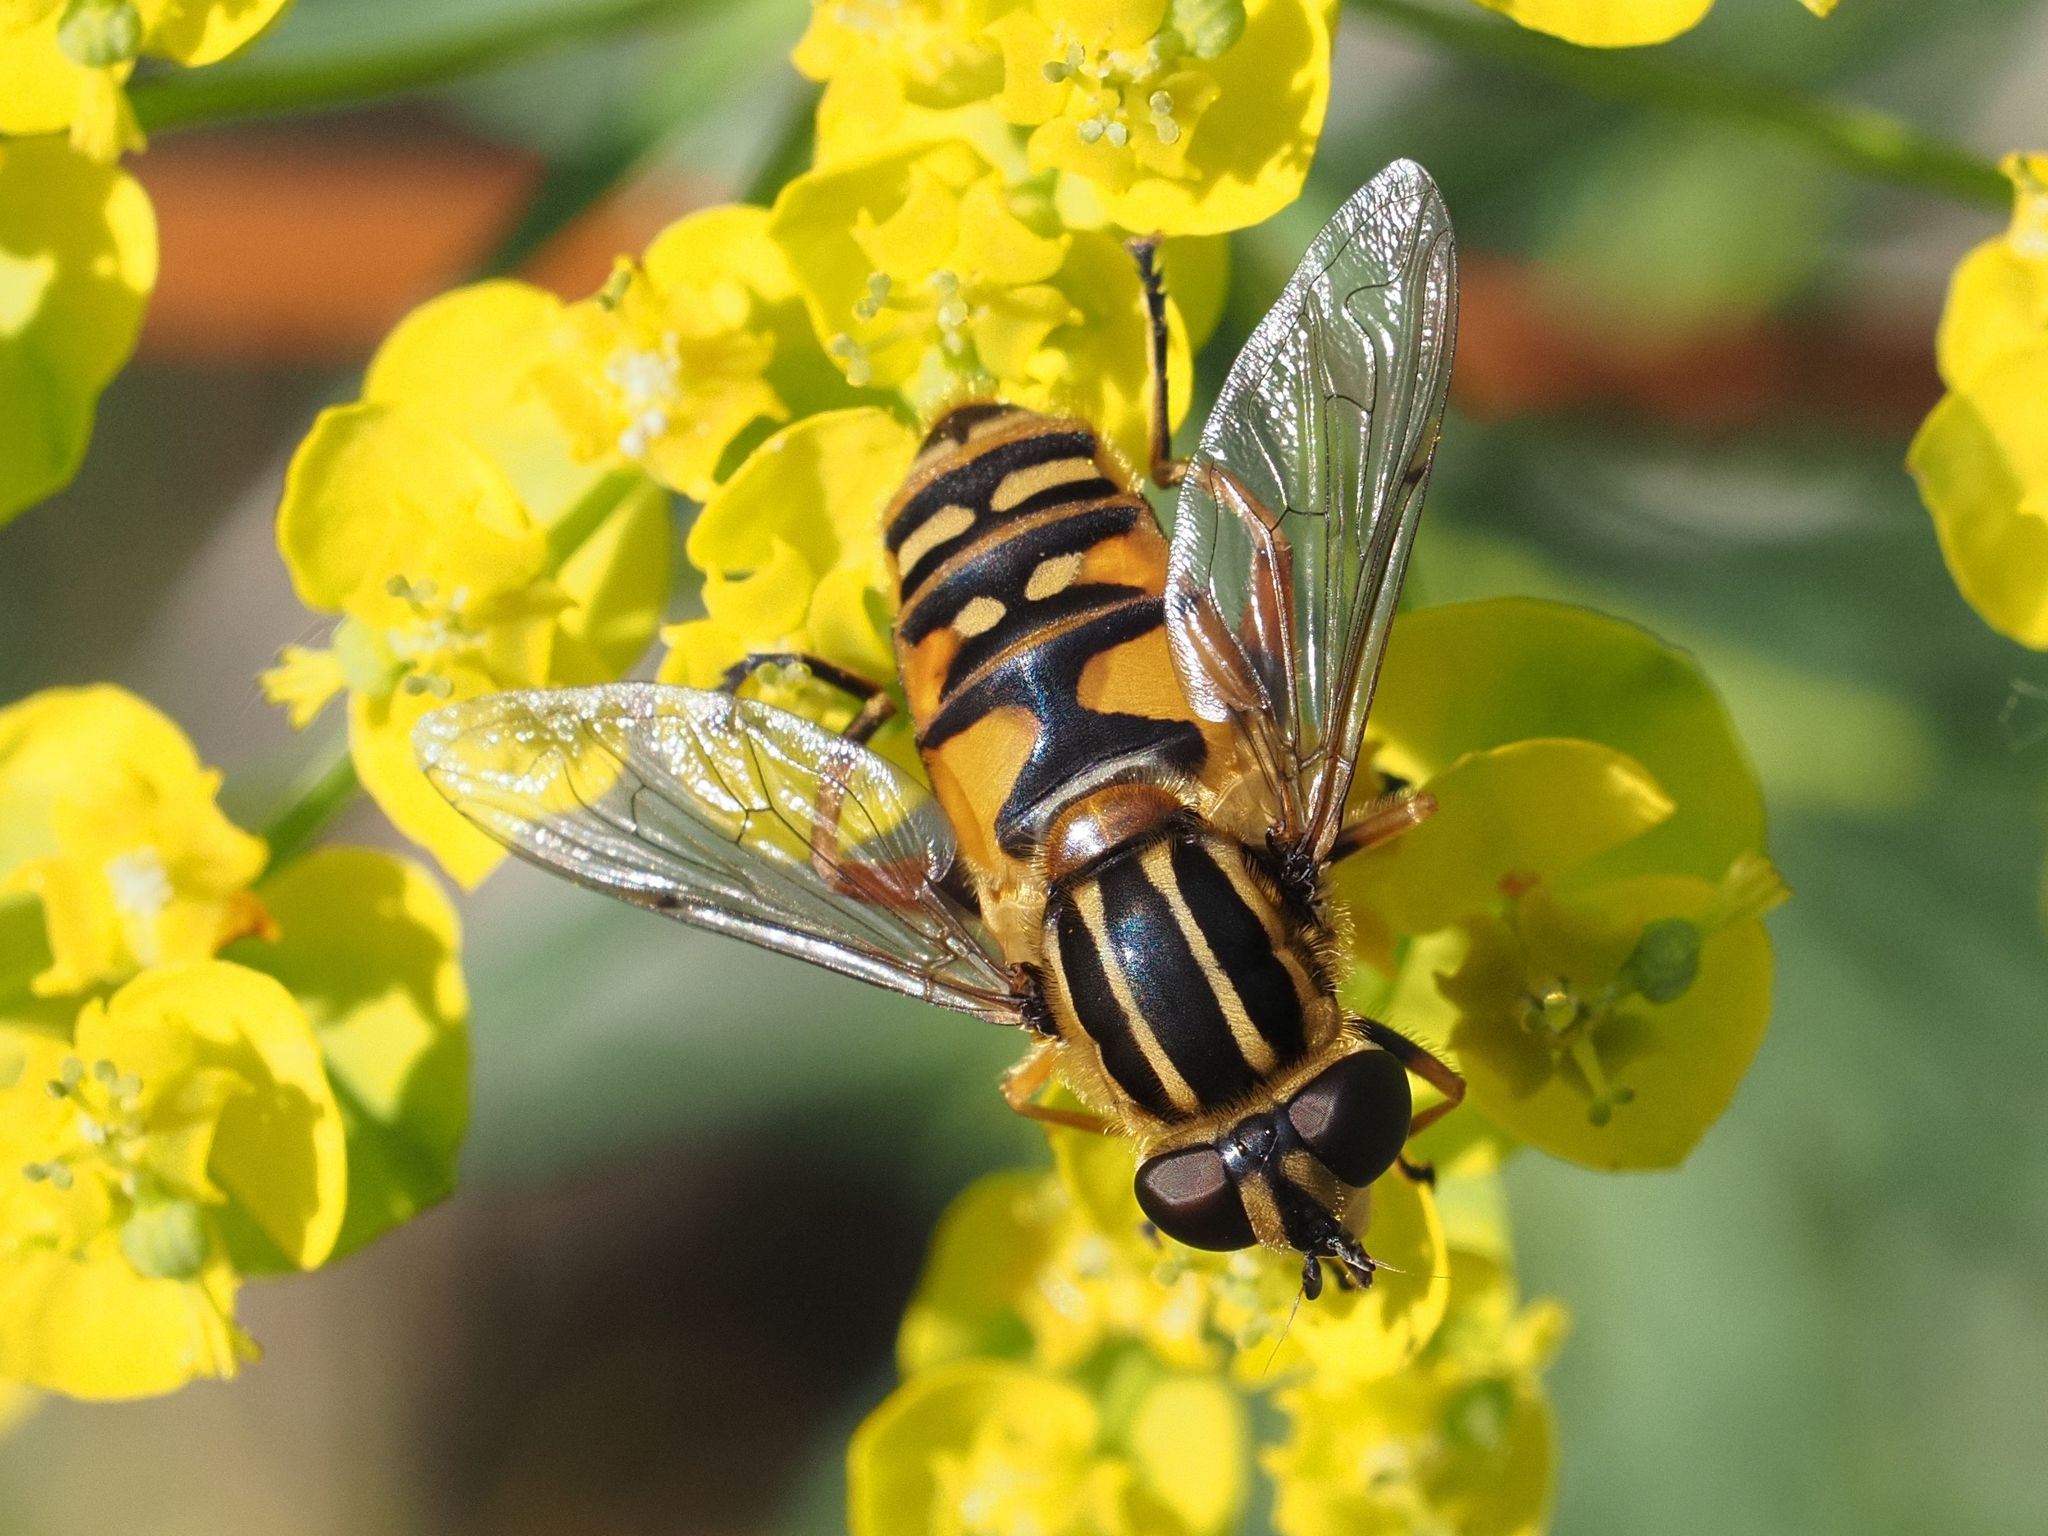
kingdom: Animalia
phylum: Arthropoda
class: Insecta
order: Diptera
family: Syrphidae
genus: Helophilus
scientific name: Helophilus pendulus
